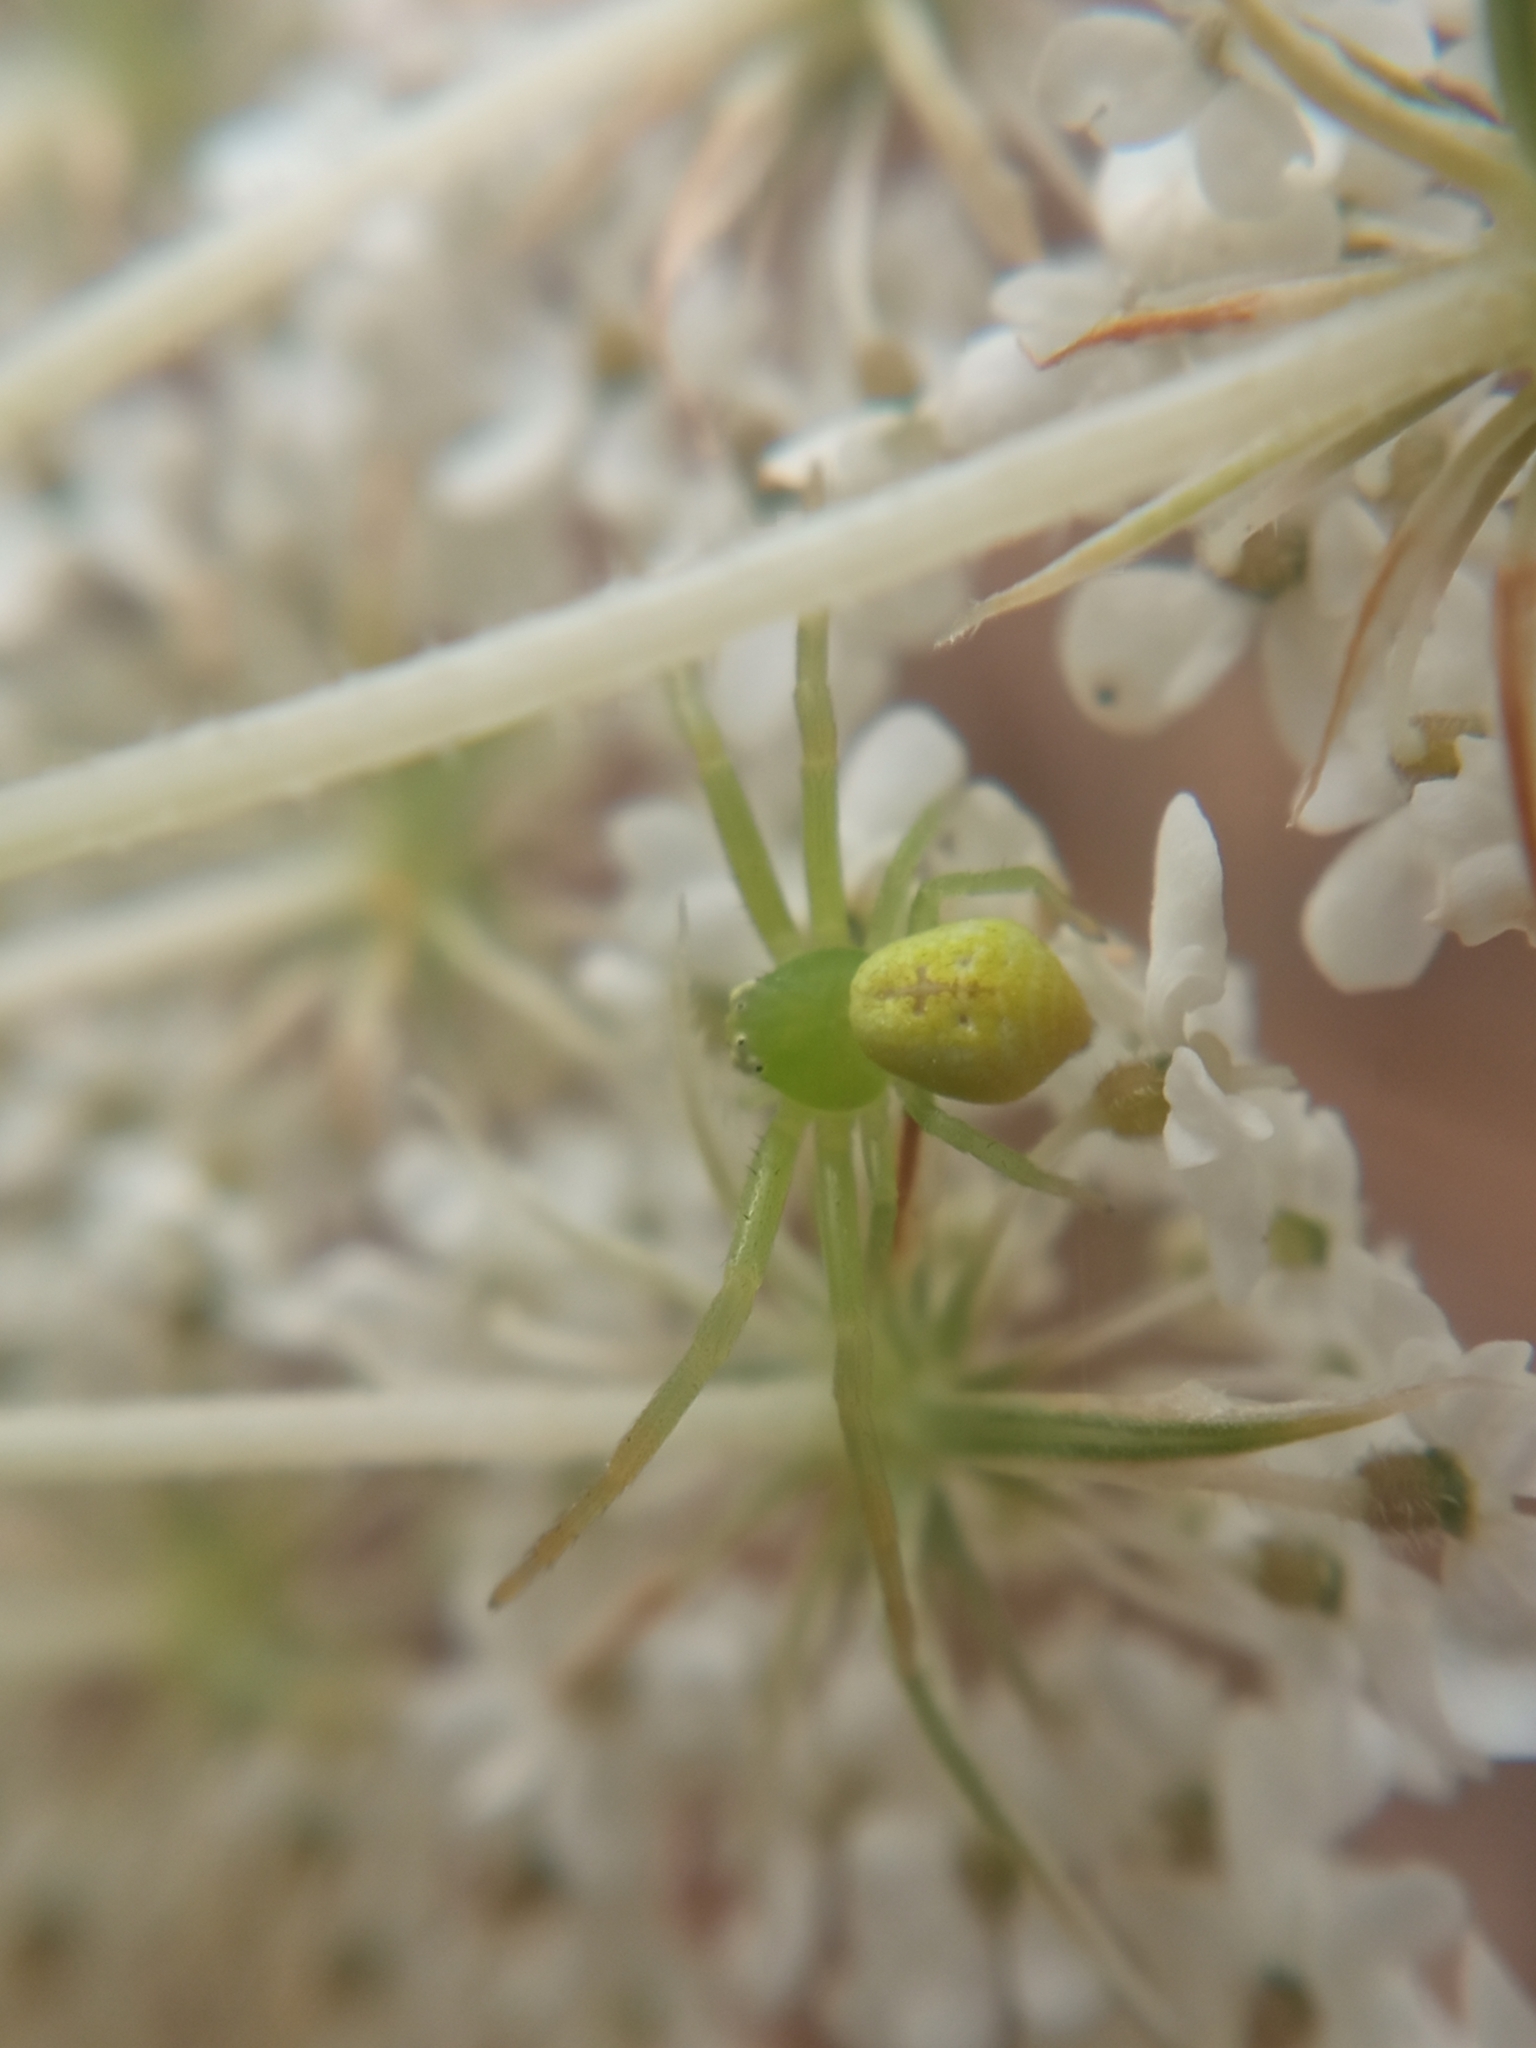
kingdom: Animalia
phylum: Arthropoda
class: Arachnida
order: Araneae
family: Thomisidae
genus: Ebrechtella
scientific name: Ebrechtella tricuspidata
